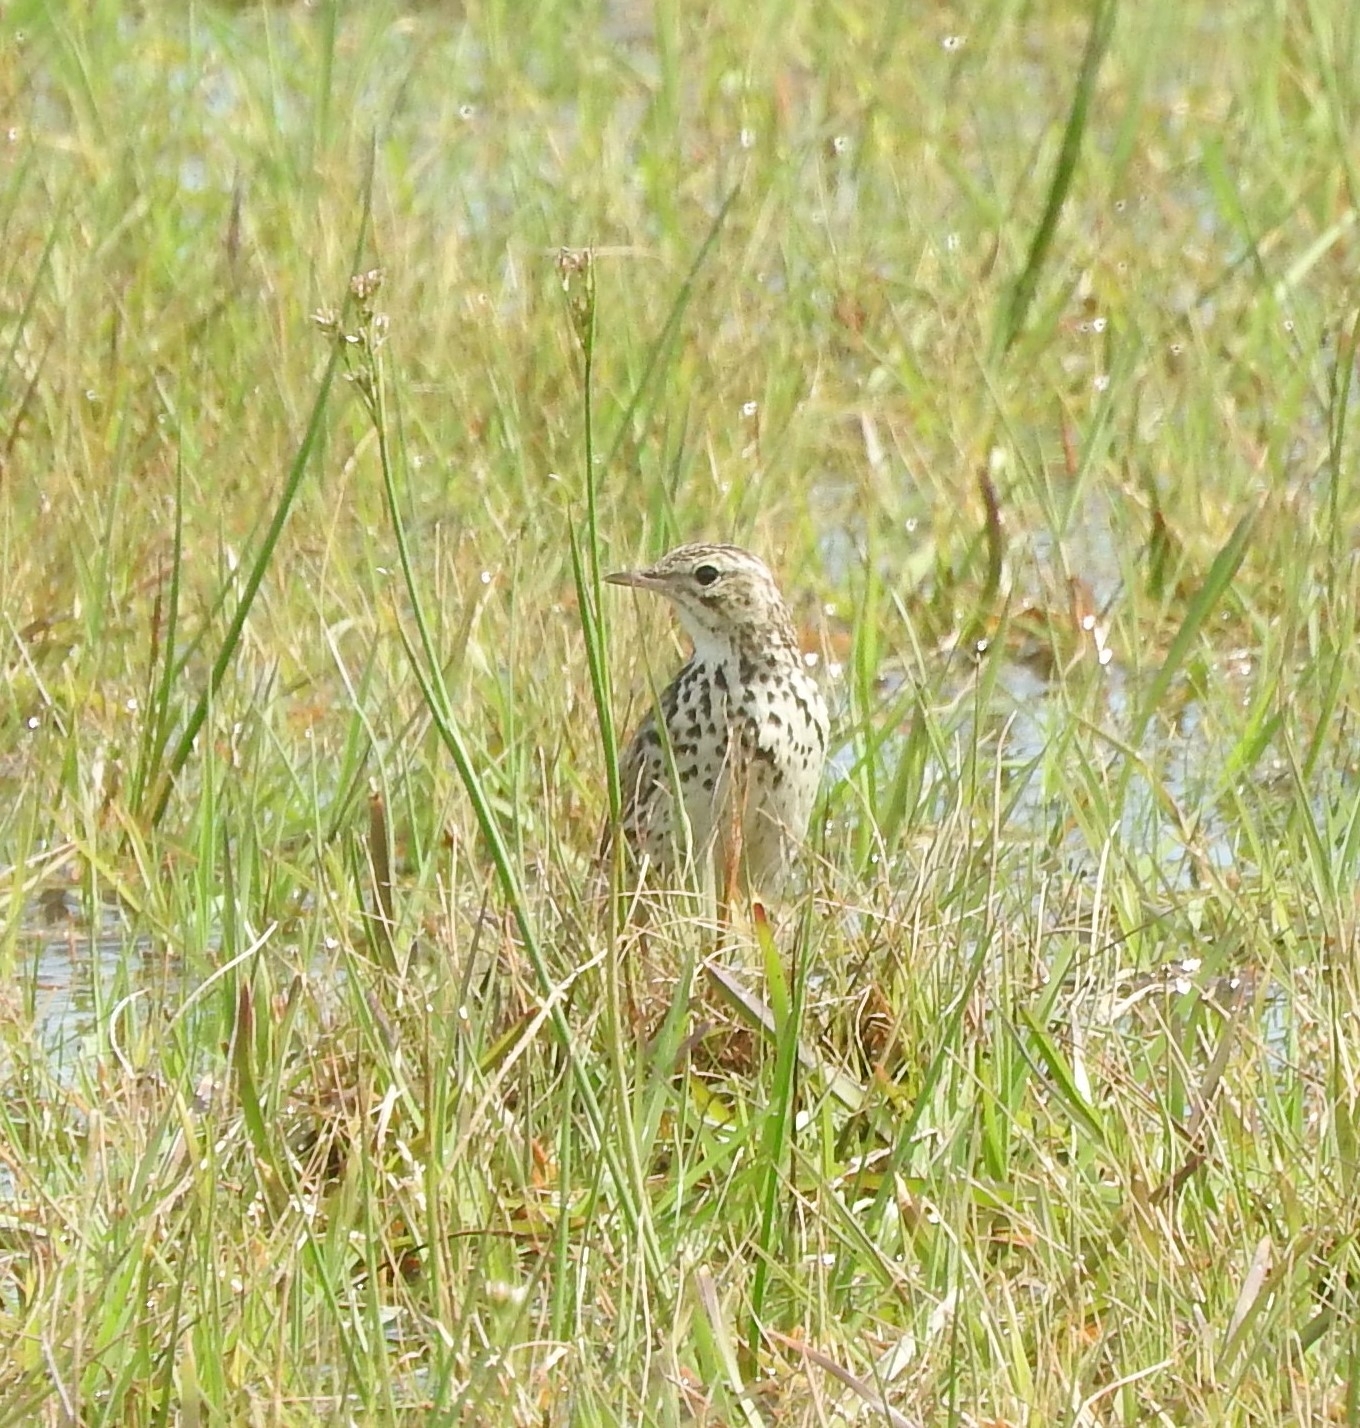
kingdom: Animalia
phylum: Chordata
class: Aves
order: Passeriformes
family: Motacillidae
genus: Anthus
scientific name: Anthus correndera
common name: Correndera pipit
